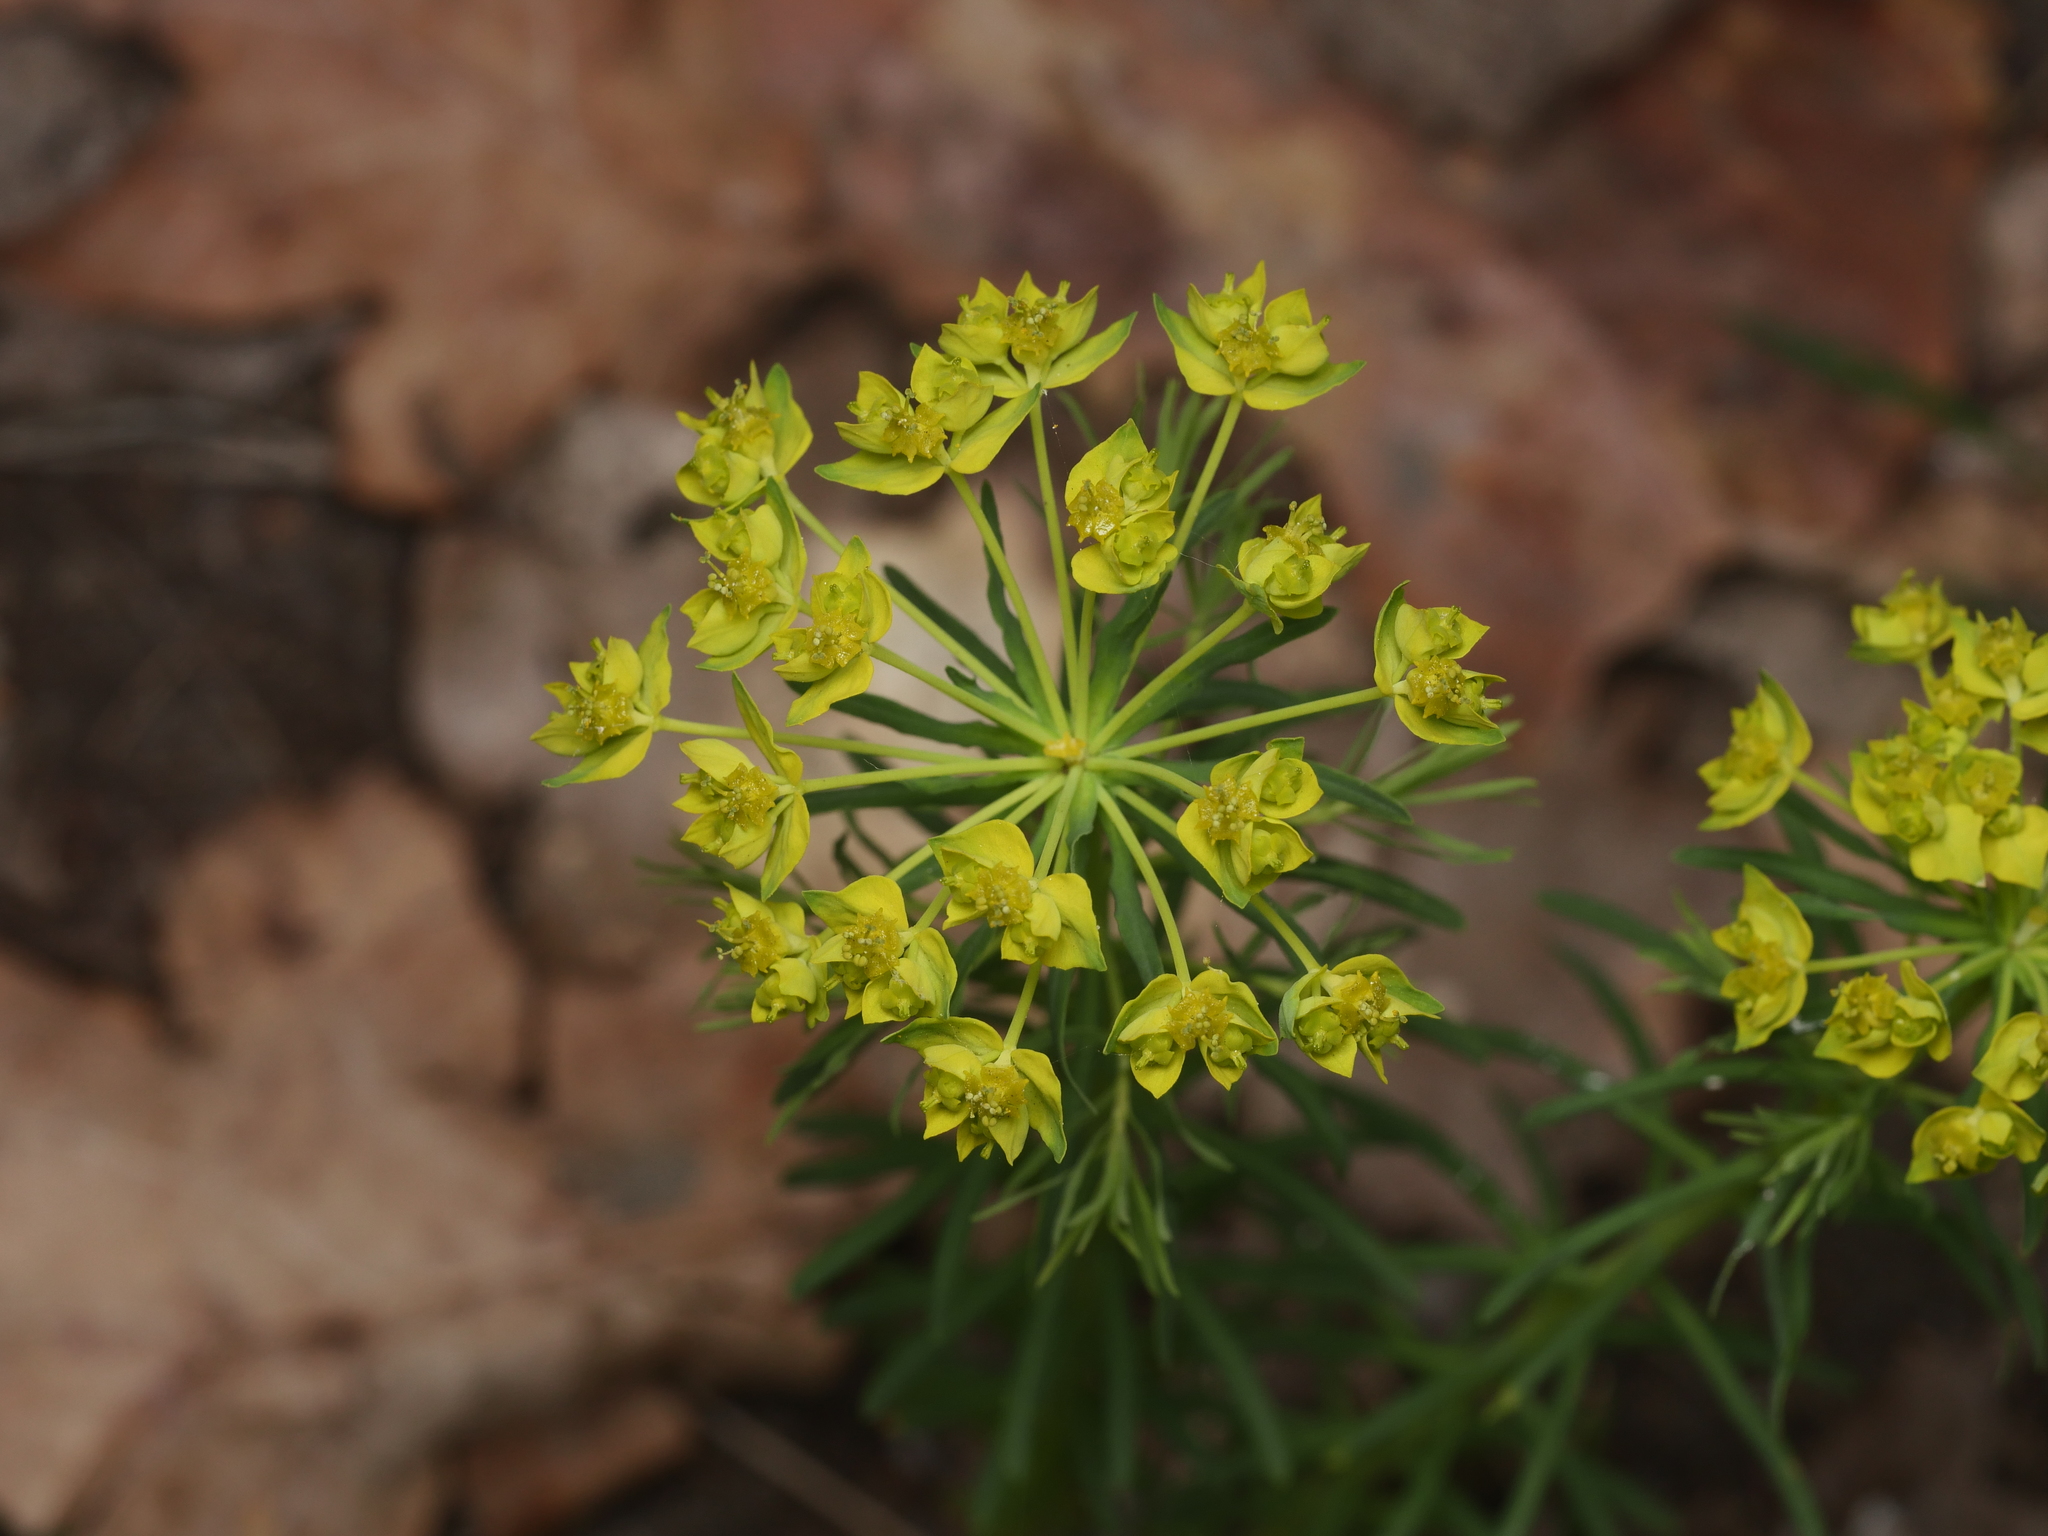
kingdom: Plantae
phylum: Tracheophyta
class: Magnoliopsida
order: Malpighiales
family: Euphorbiaceae
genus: Euphorbia
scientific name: Euphorbia cyparissias
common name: Cypress spurge
